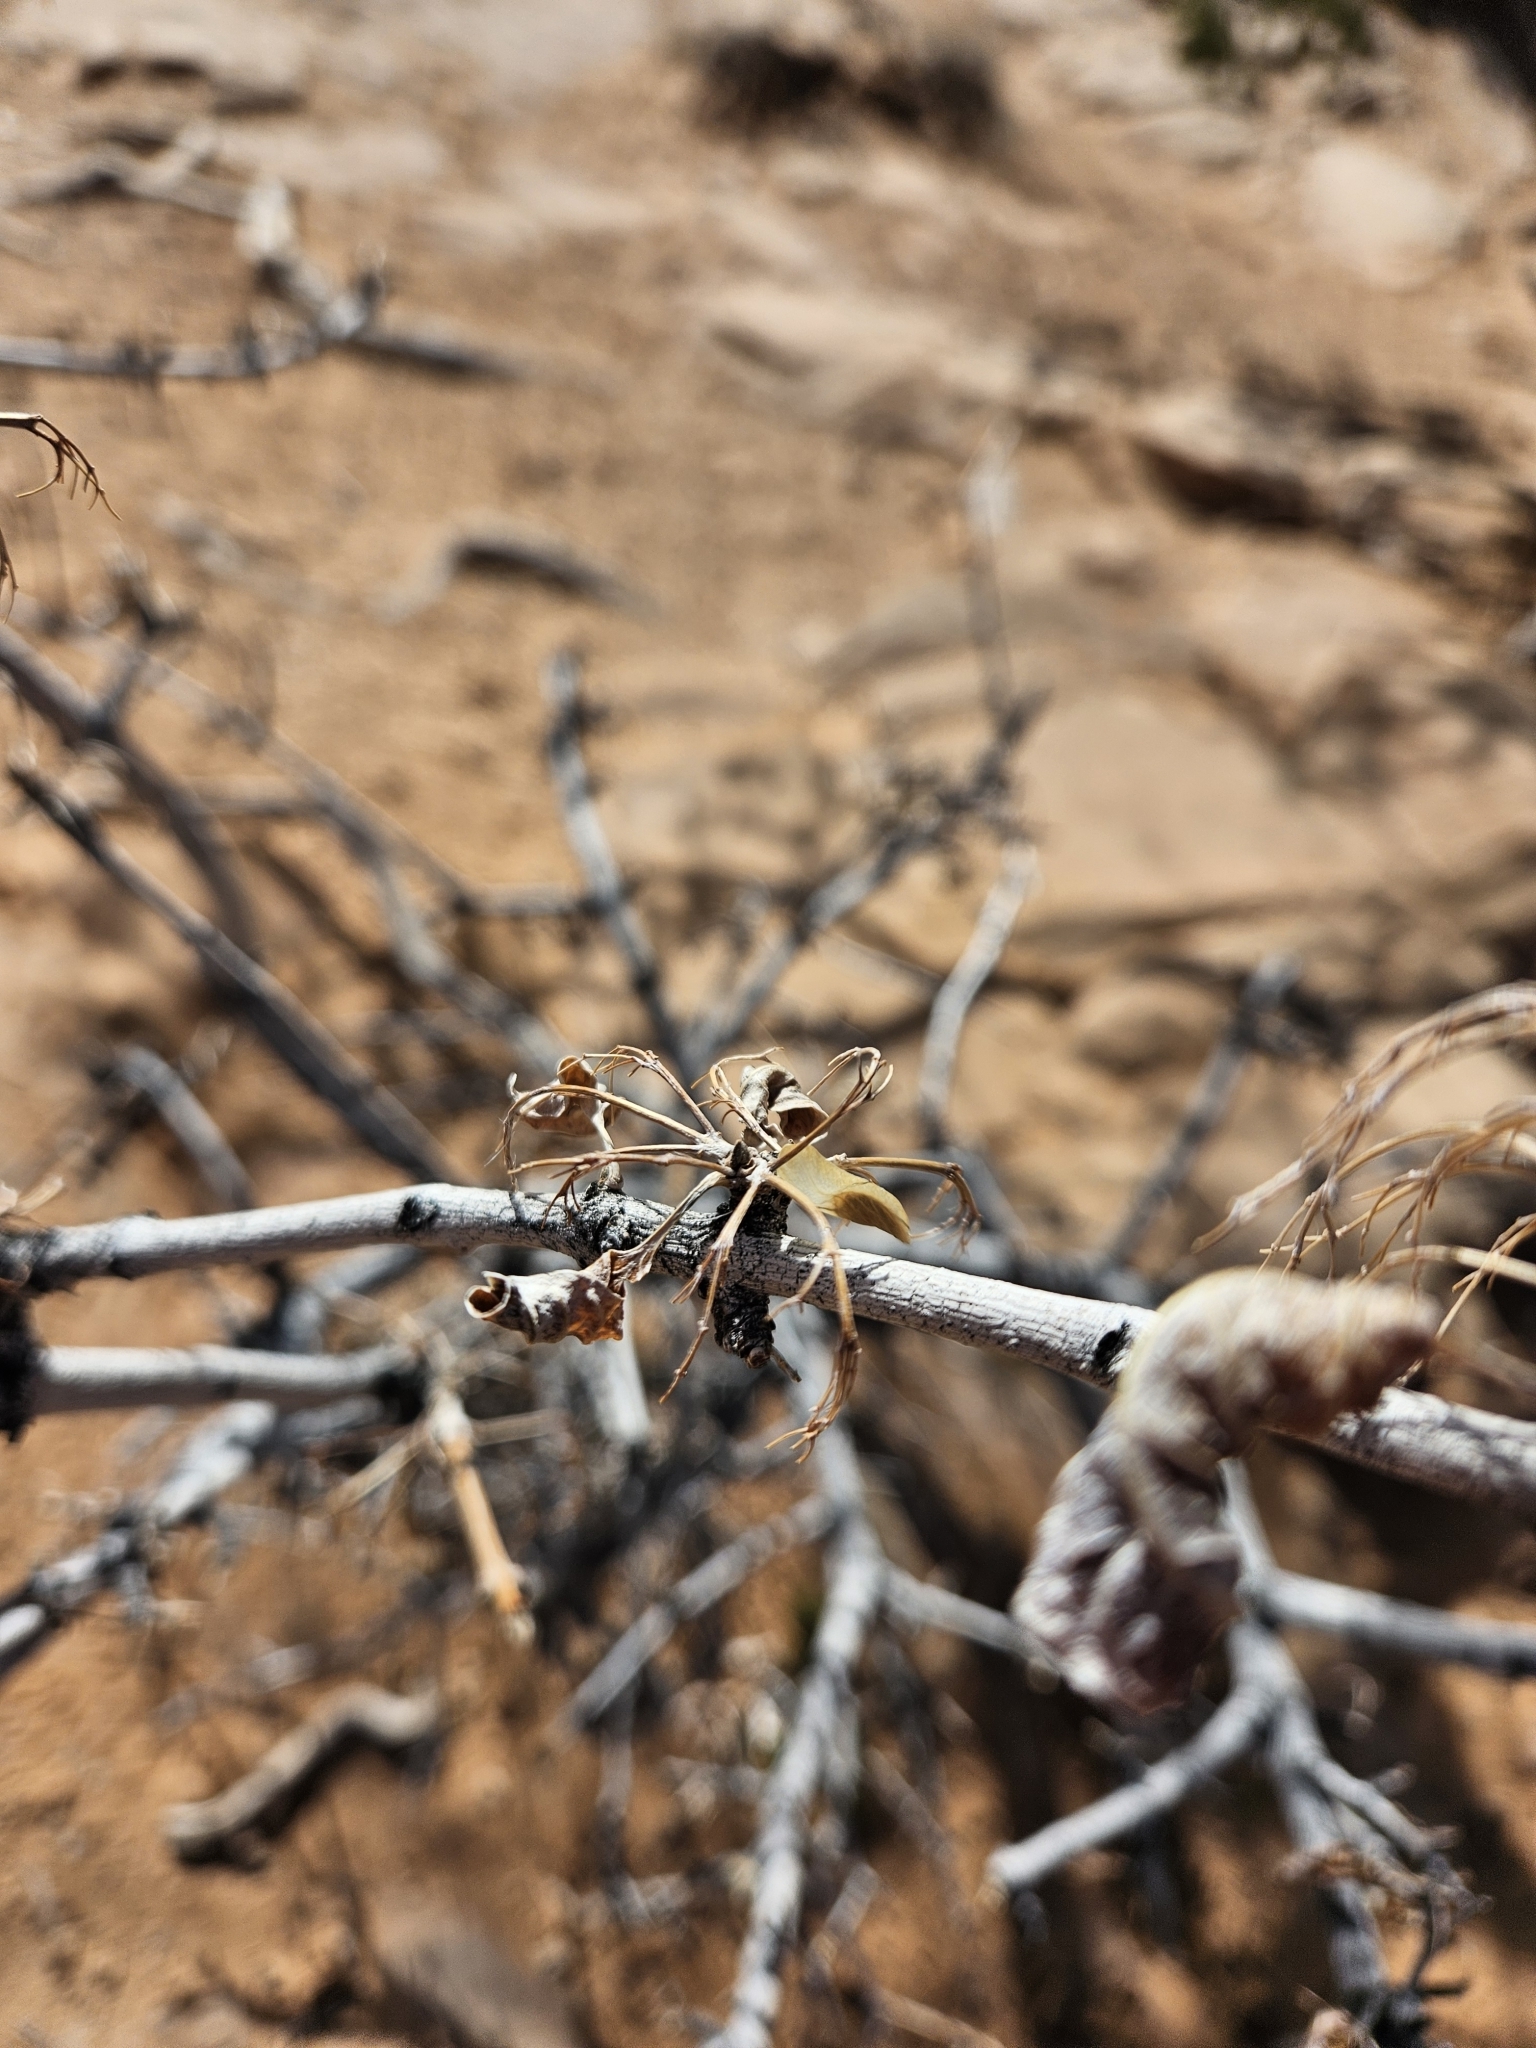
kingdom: Plantae
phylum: Tracheophyta
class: Magnoliopsida
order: Lamiales
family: Oleaceae
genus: Fraxinus
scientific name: Fraxinus anomala
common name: Utah ash
